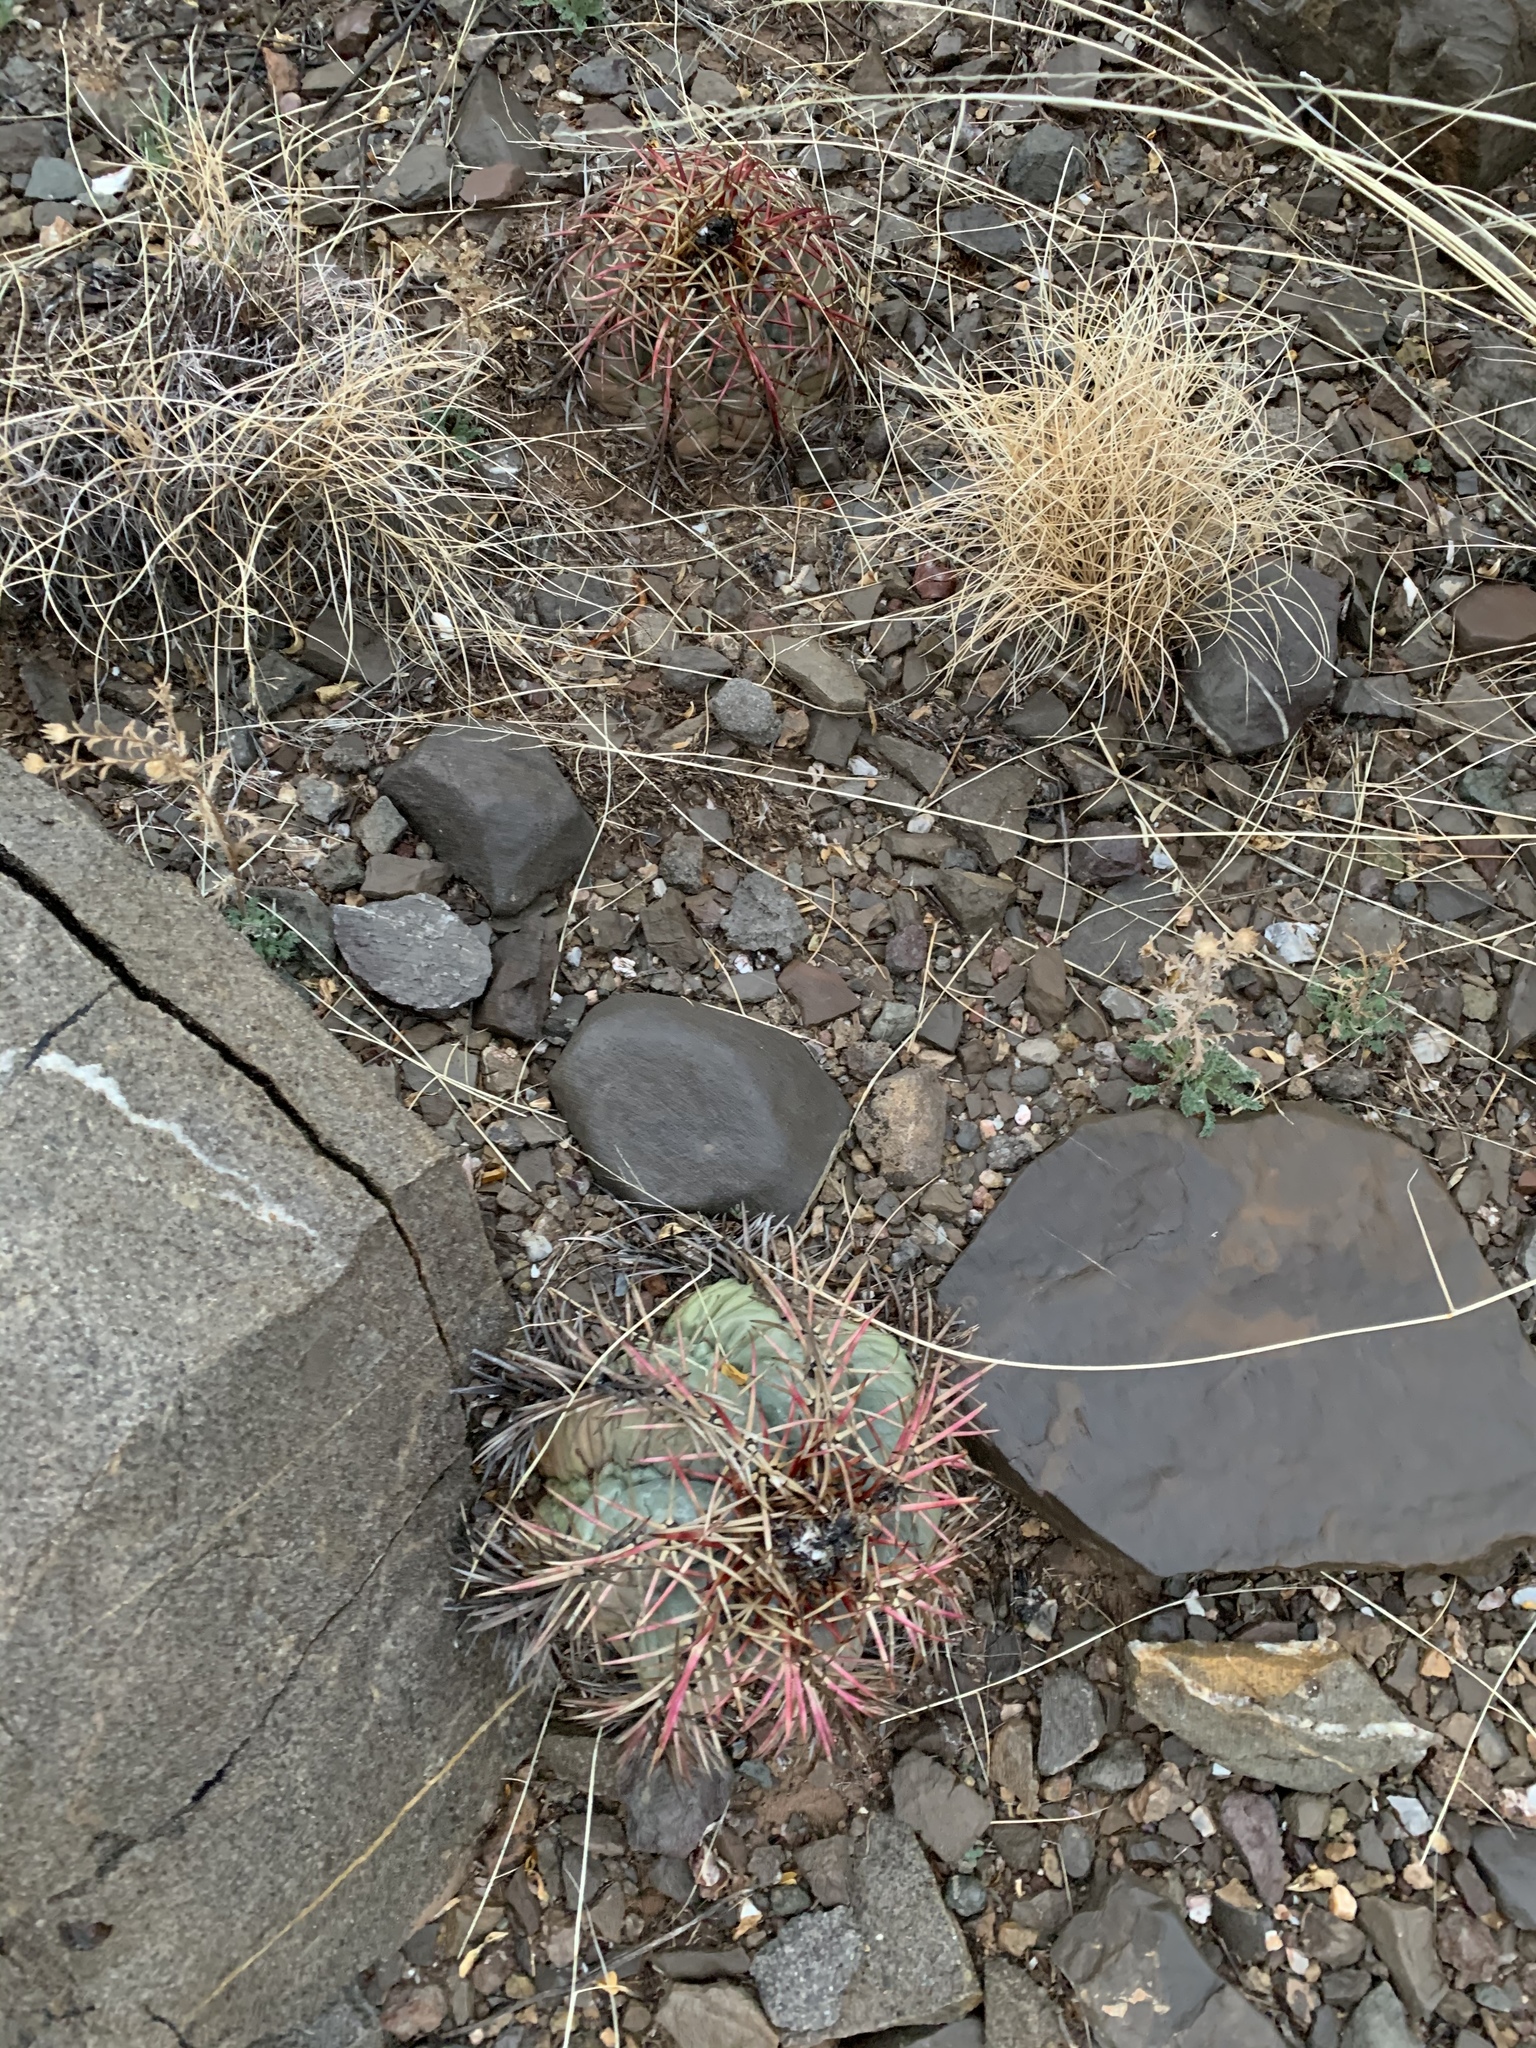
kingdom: Plantae
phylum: Tracheophyta
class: Magnoliopsida
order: Caryophyllales
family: Cactaceae
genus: Echinocactus
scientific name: Echinocactus horizonthalonius
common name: Devilshead
